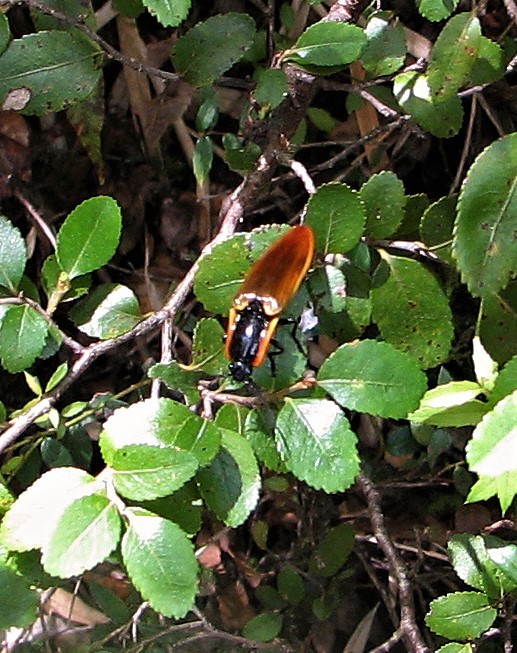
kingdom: Animalia
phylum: Arthropoda
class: Insecta
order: Coleoptera
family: Elateridae
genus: Semiotus
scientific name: Semiotus
